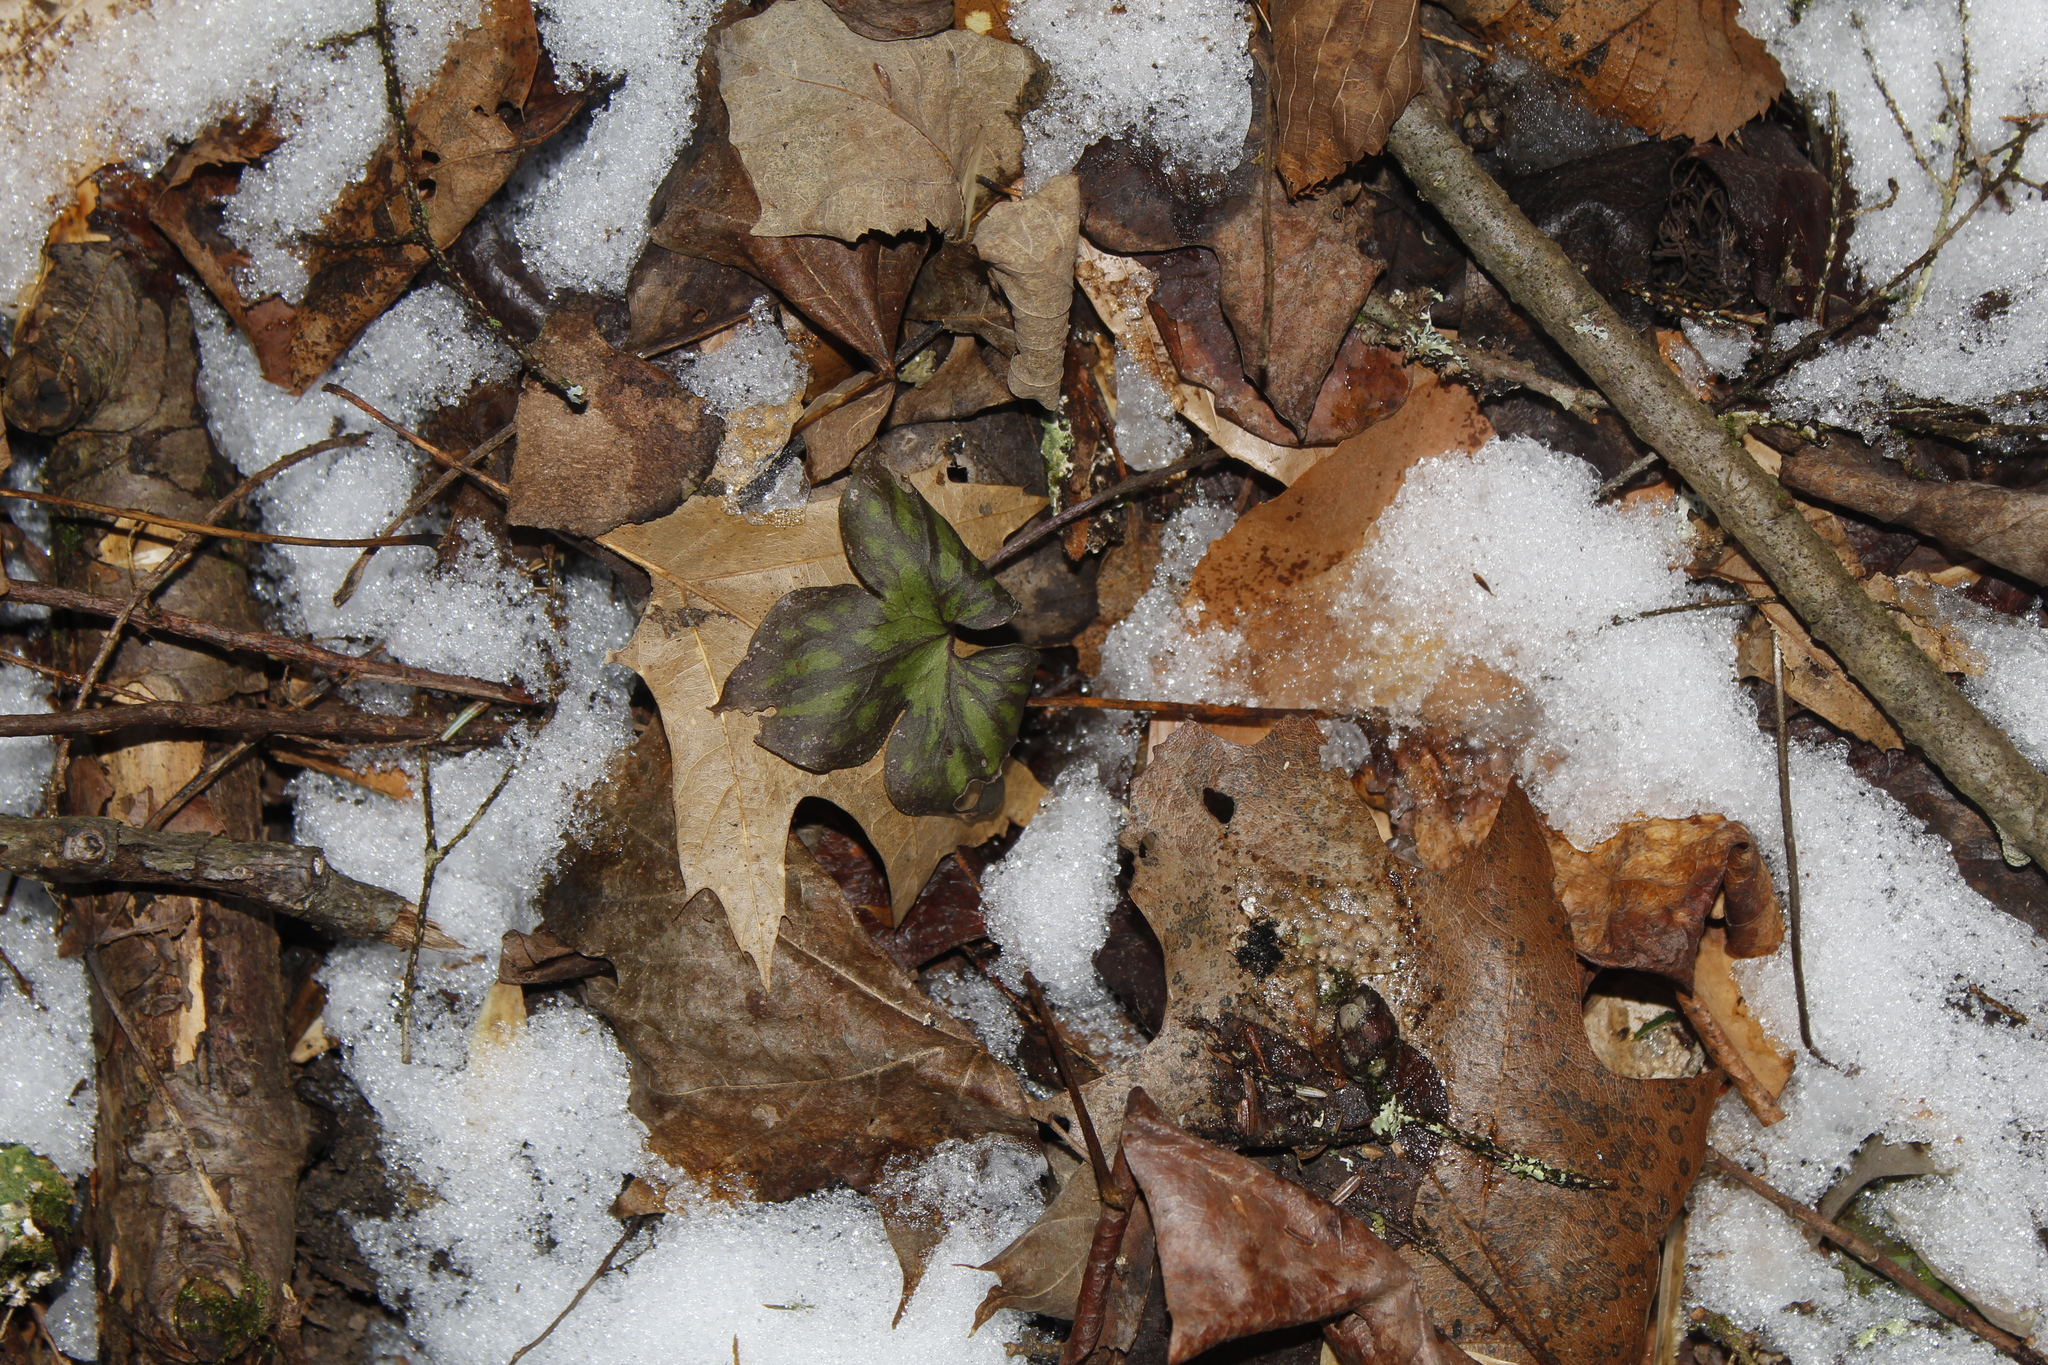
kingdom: Plantae
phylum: Tracheophyta
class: Magnoliopsida
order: Ranunculales
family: Ranunculaceae
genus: Hepatica
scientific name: Hepatica acutiloba
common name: Sharp-lobed hepatica
